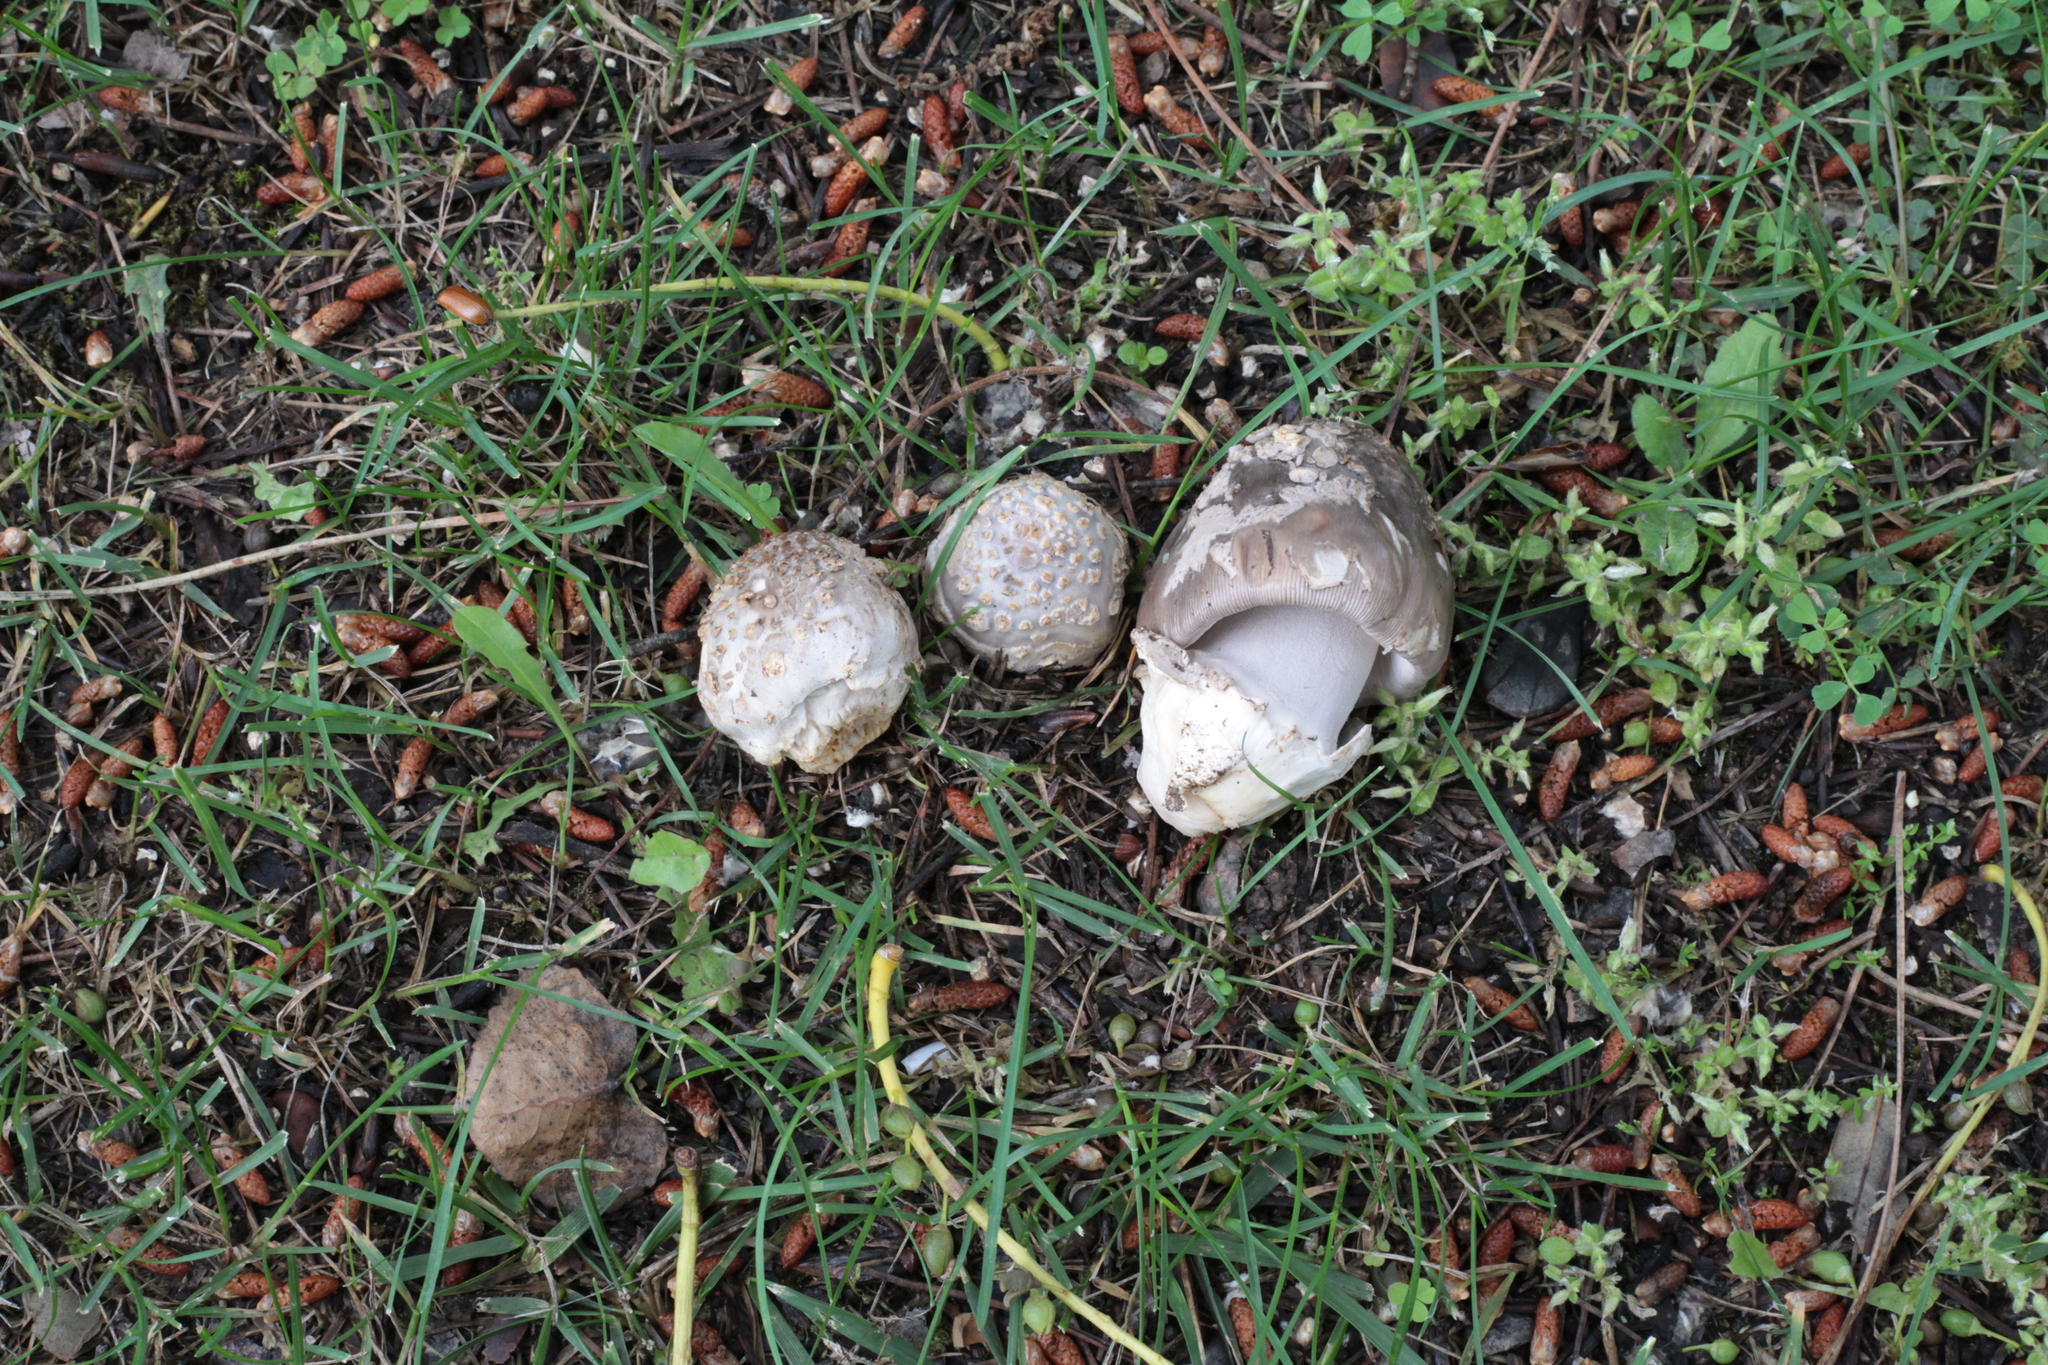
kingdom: Fungi
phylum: Basidiomycota
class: Agaricomycetes
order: Agaricales
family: Amanitaceae
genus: Amanita
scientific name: Amanita simulans
